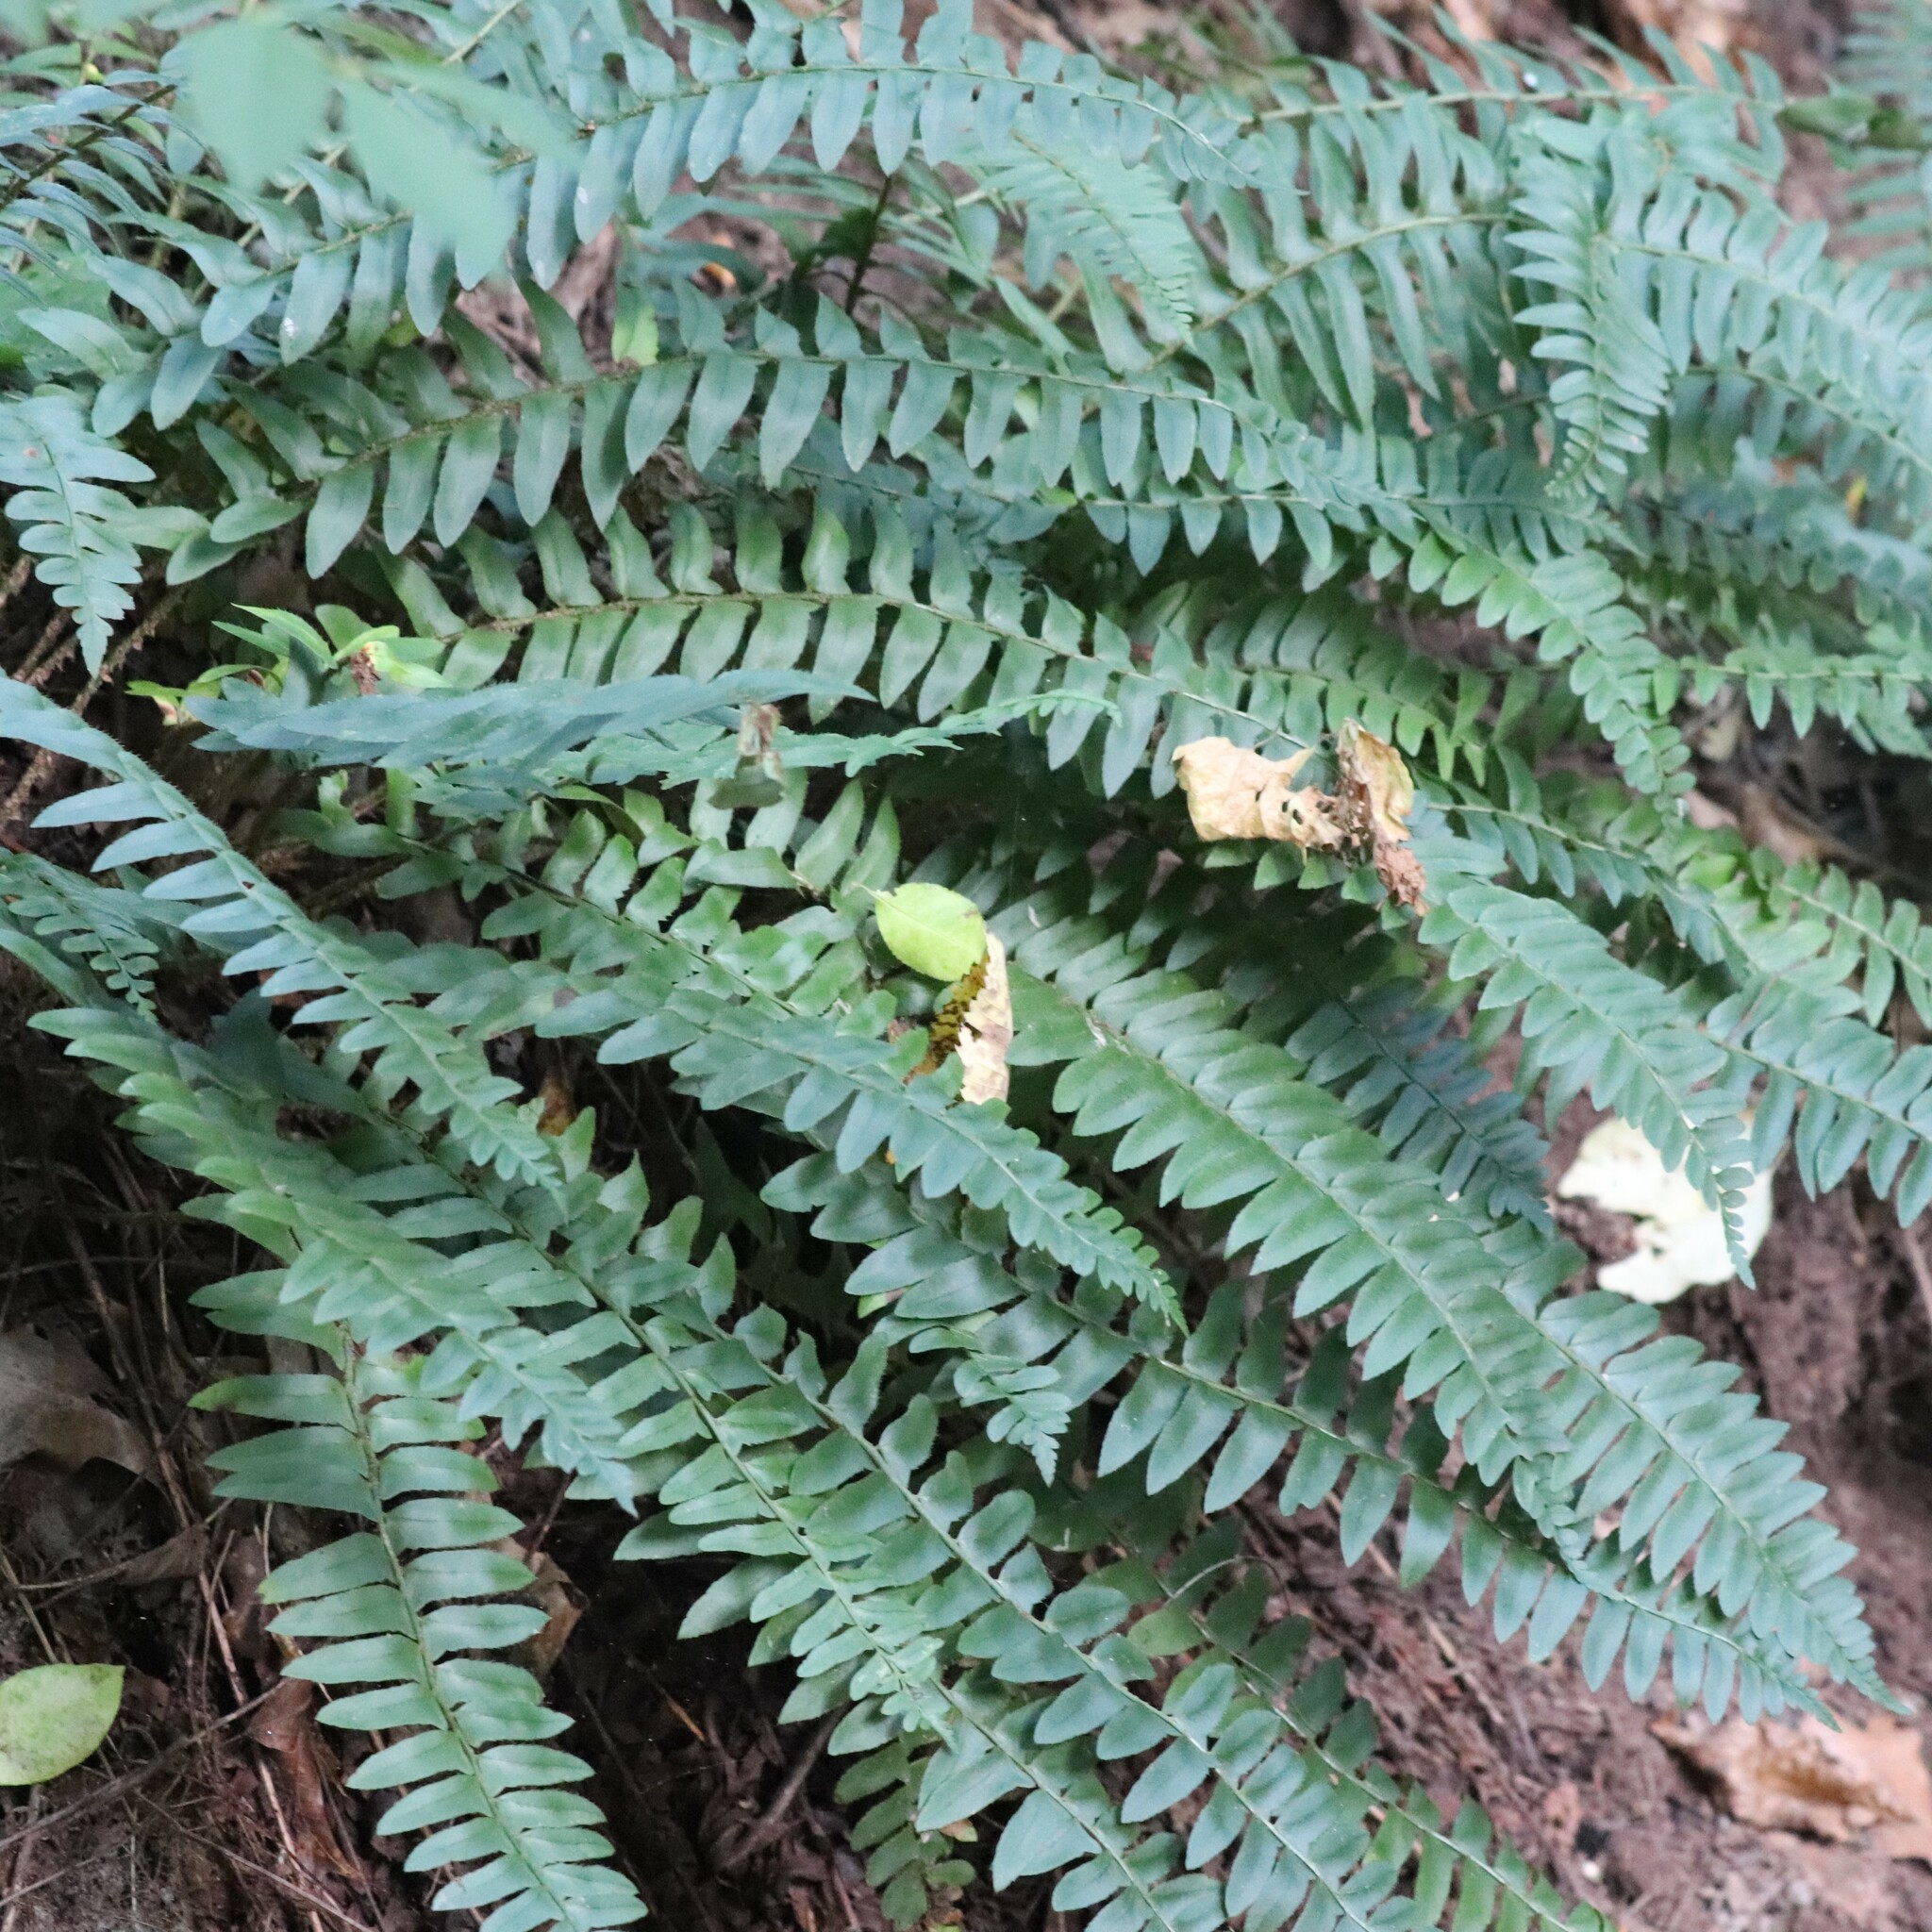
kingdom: Plantae
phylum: Tracheophyta
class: Polypodiopsida
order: Polypodiales
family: Dryopteridaceae
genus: Polystichum
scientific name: Polystichum acrostichoides
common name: Christmas fern
